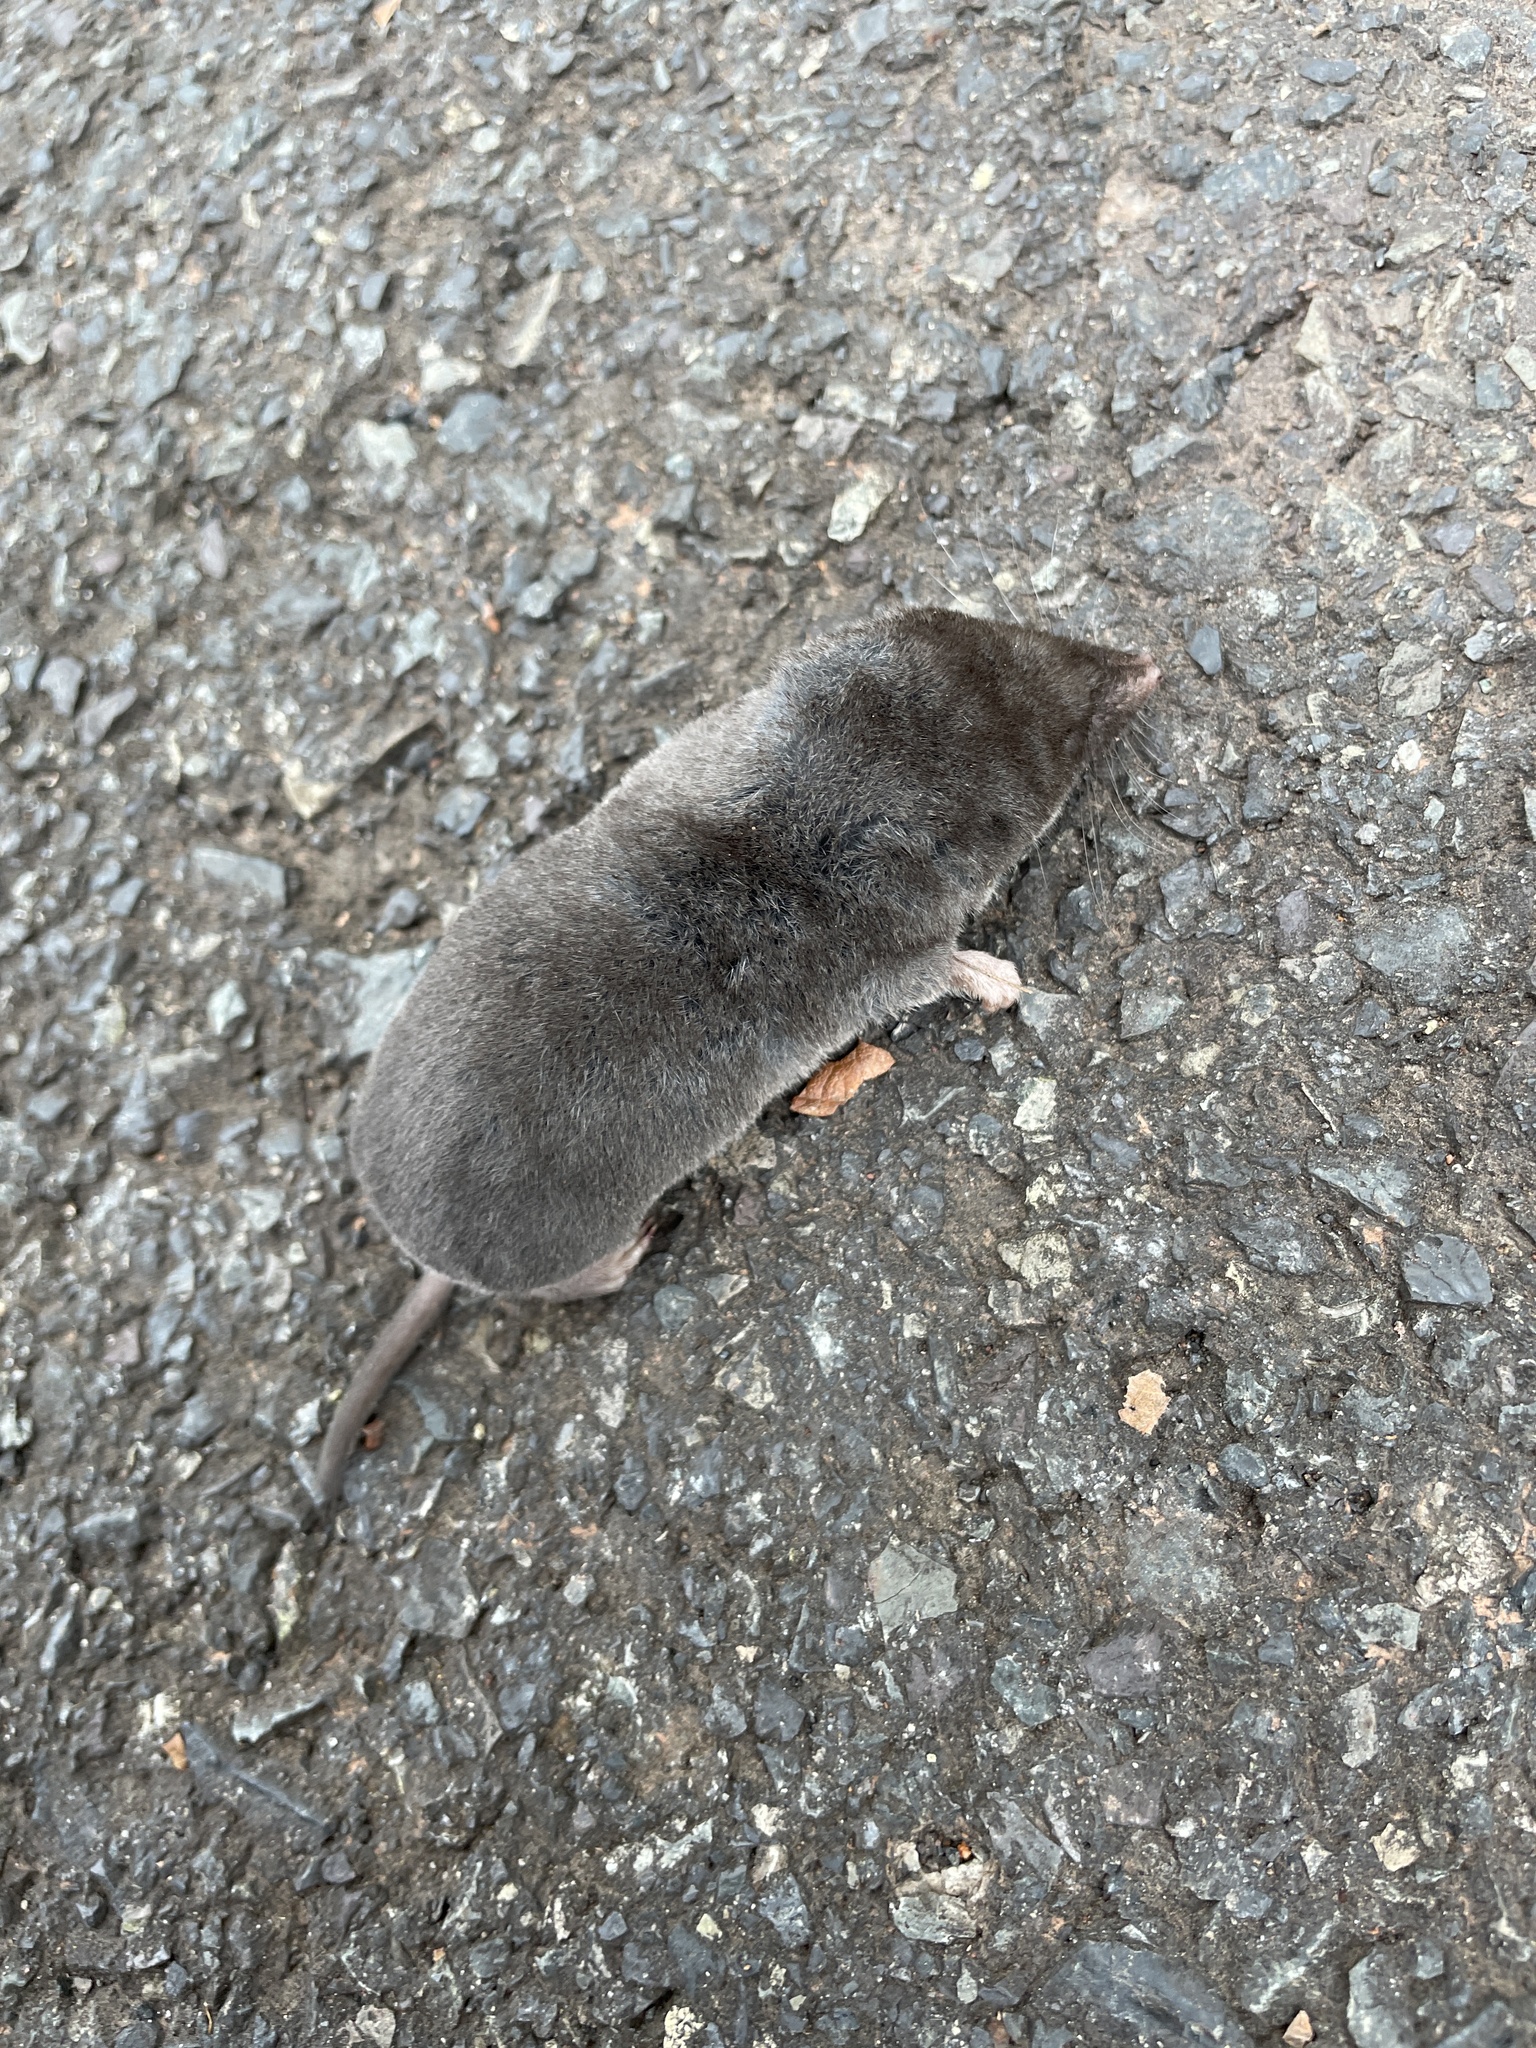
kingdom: Animalia
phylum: Chordata
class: Mammalia
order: Soricomorpha
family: Soricidae
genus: Blarina
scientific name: Blarina brevicauda
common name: Northern short-tailed shrew
